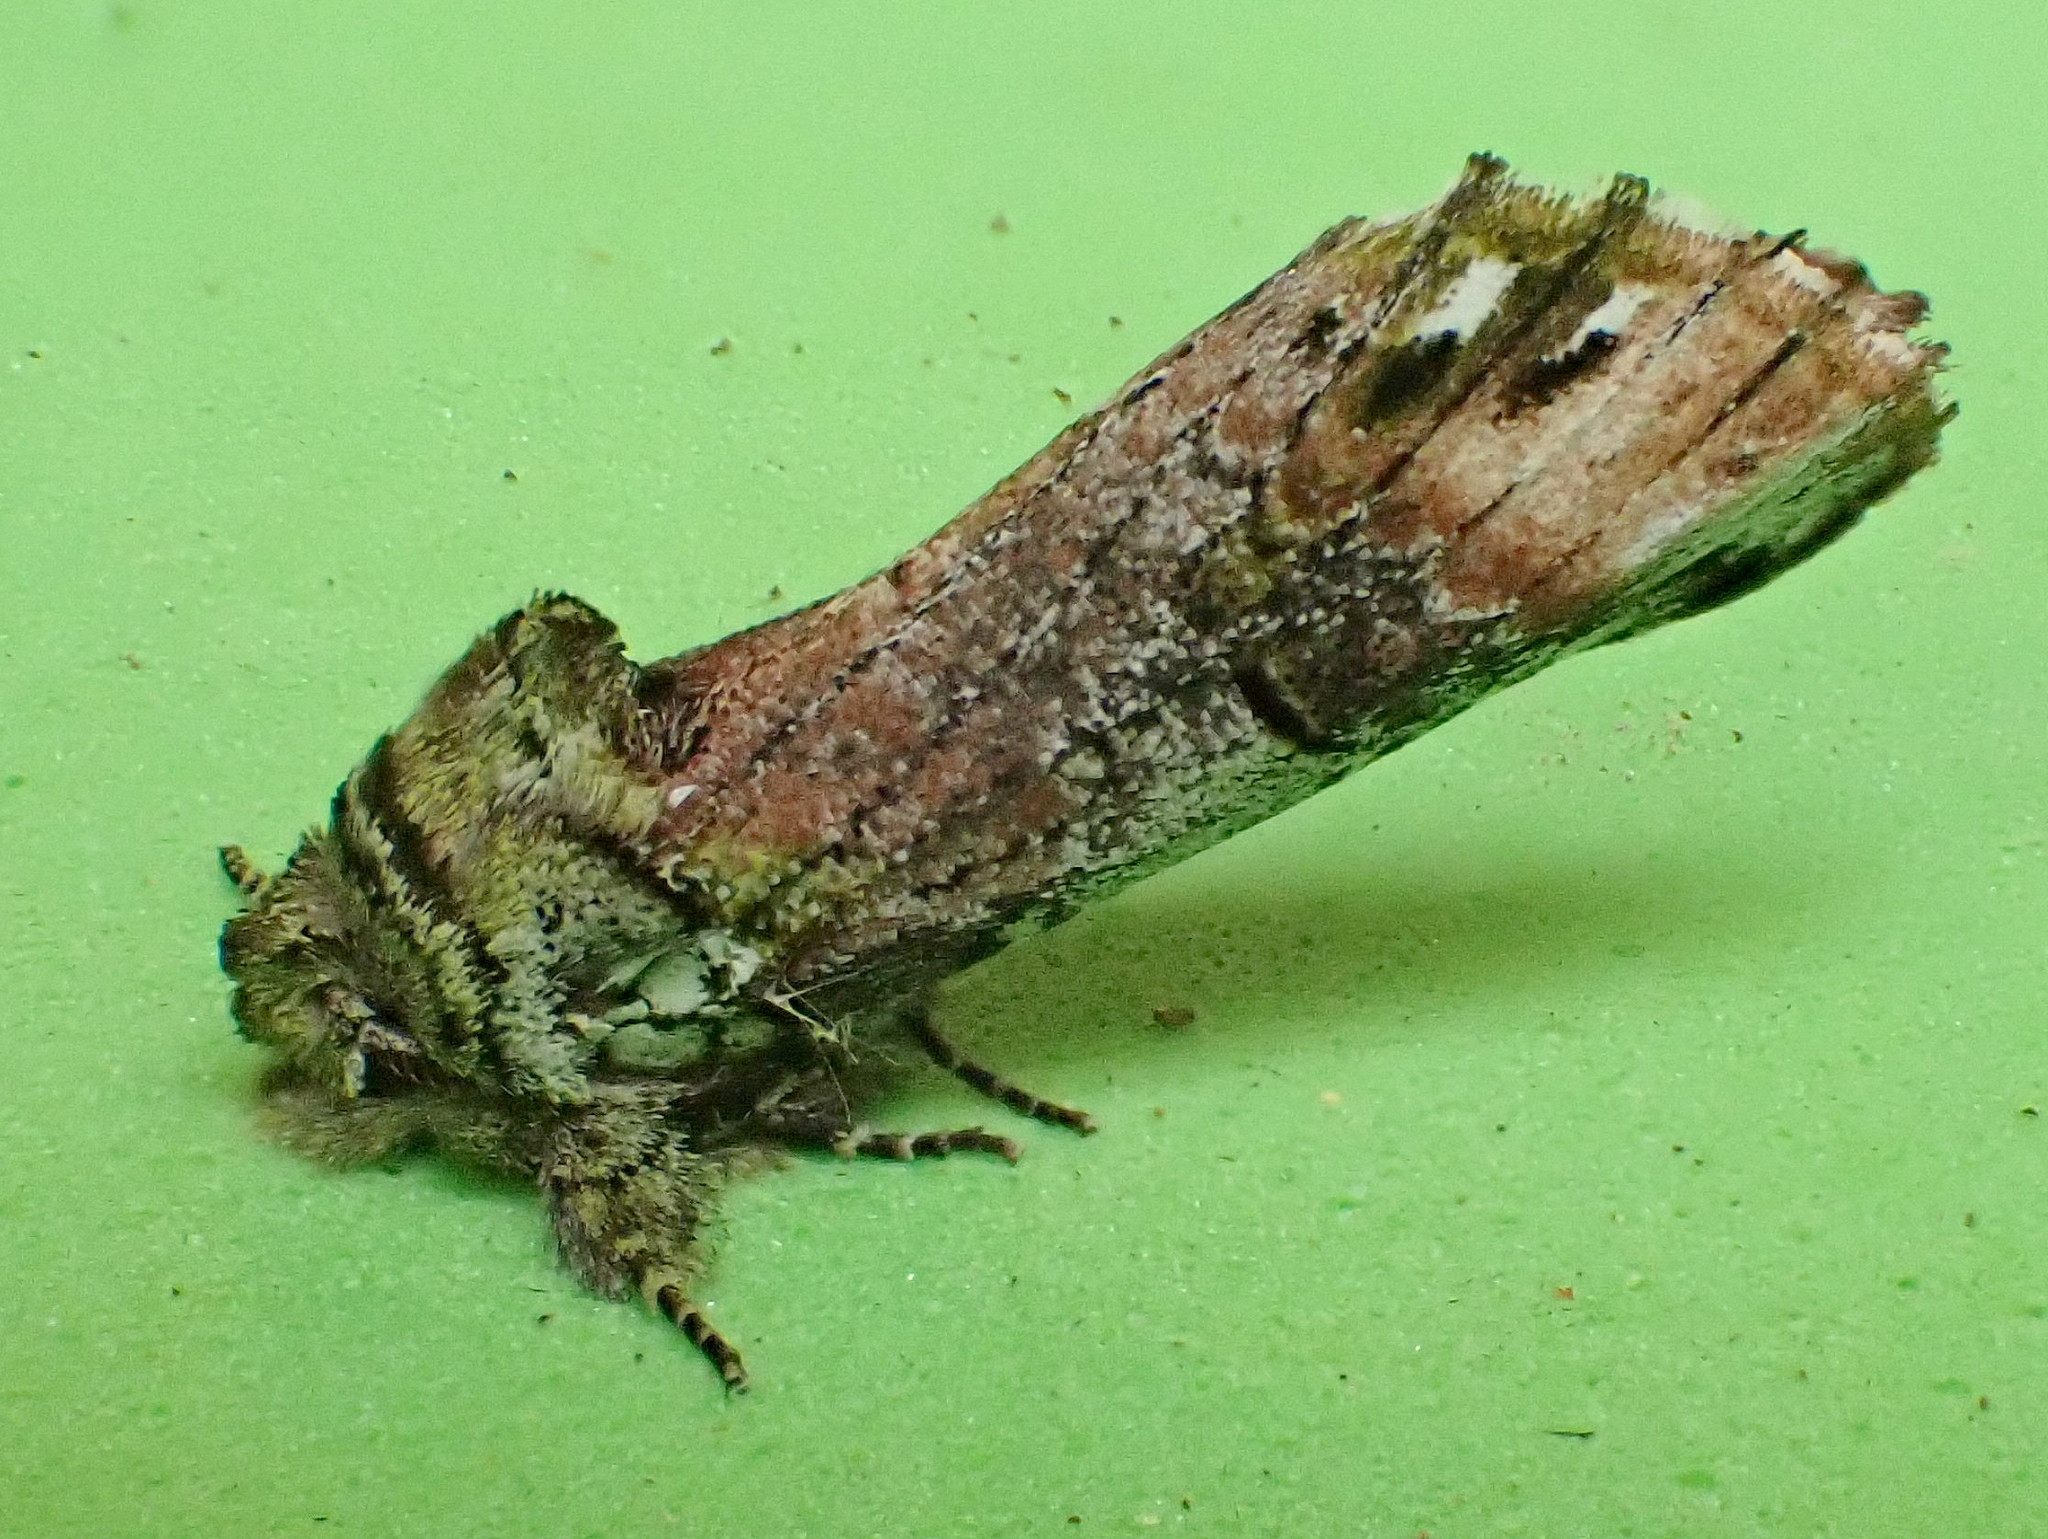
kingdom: Animalia
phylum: Arthropoda
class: Insecta
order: Lepidoptera
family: Notodontidae
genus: Schizura
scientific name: Schizura
